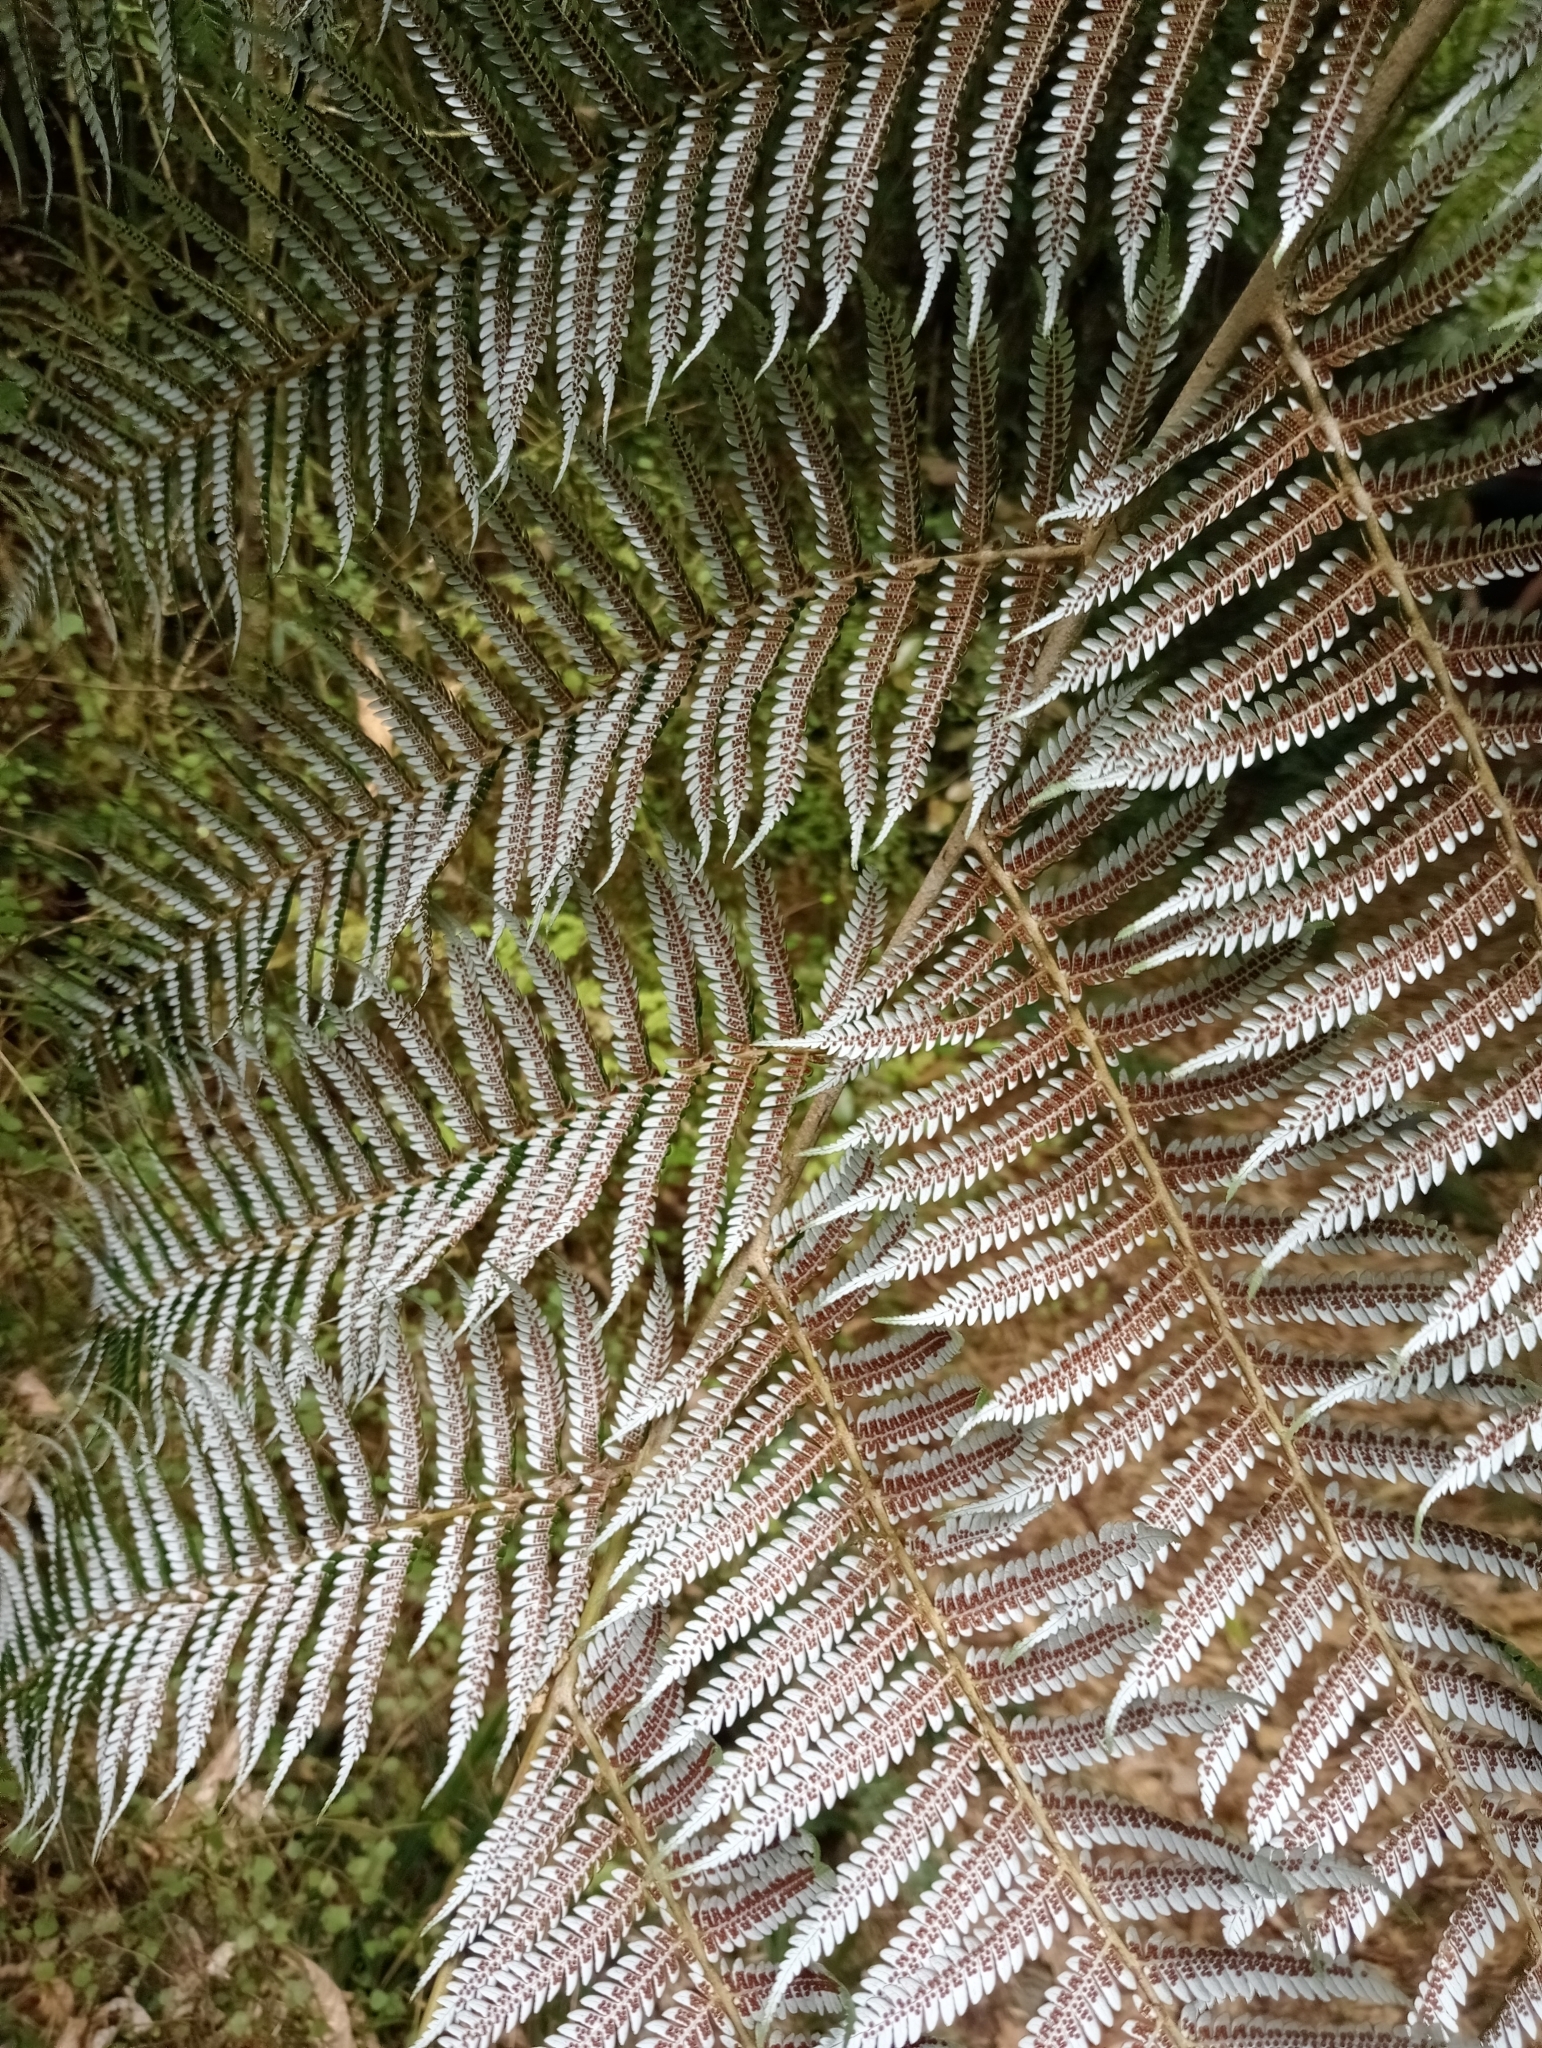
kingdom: Plantae
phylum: Tracheophyta
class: Polypodiopsida
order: Cyatheales
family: Cyatheaceae
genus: Alsophila
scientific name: Alsophila dealbata
